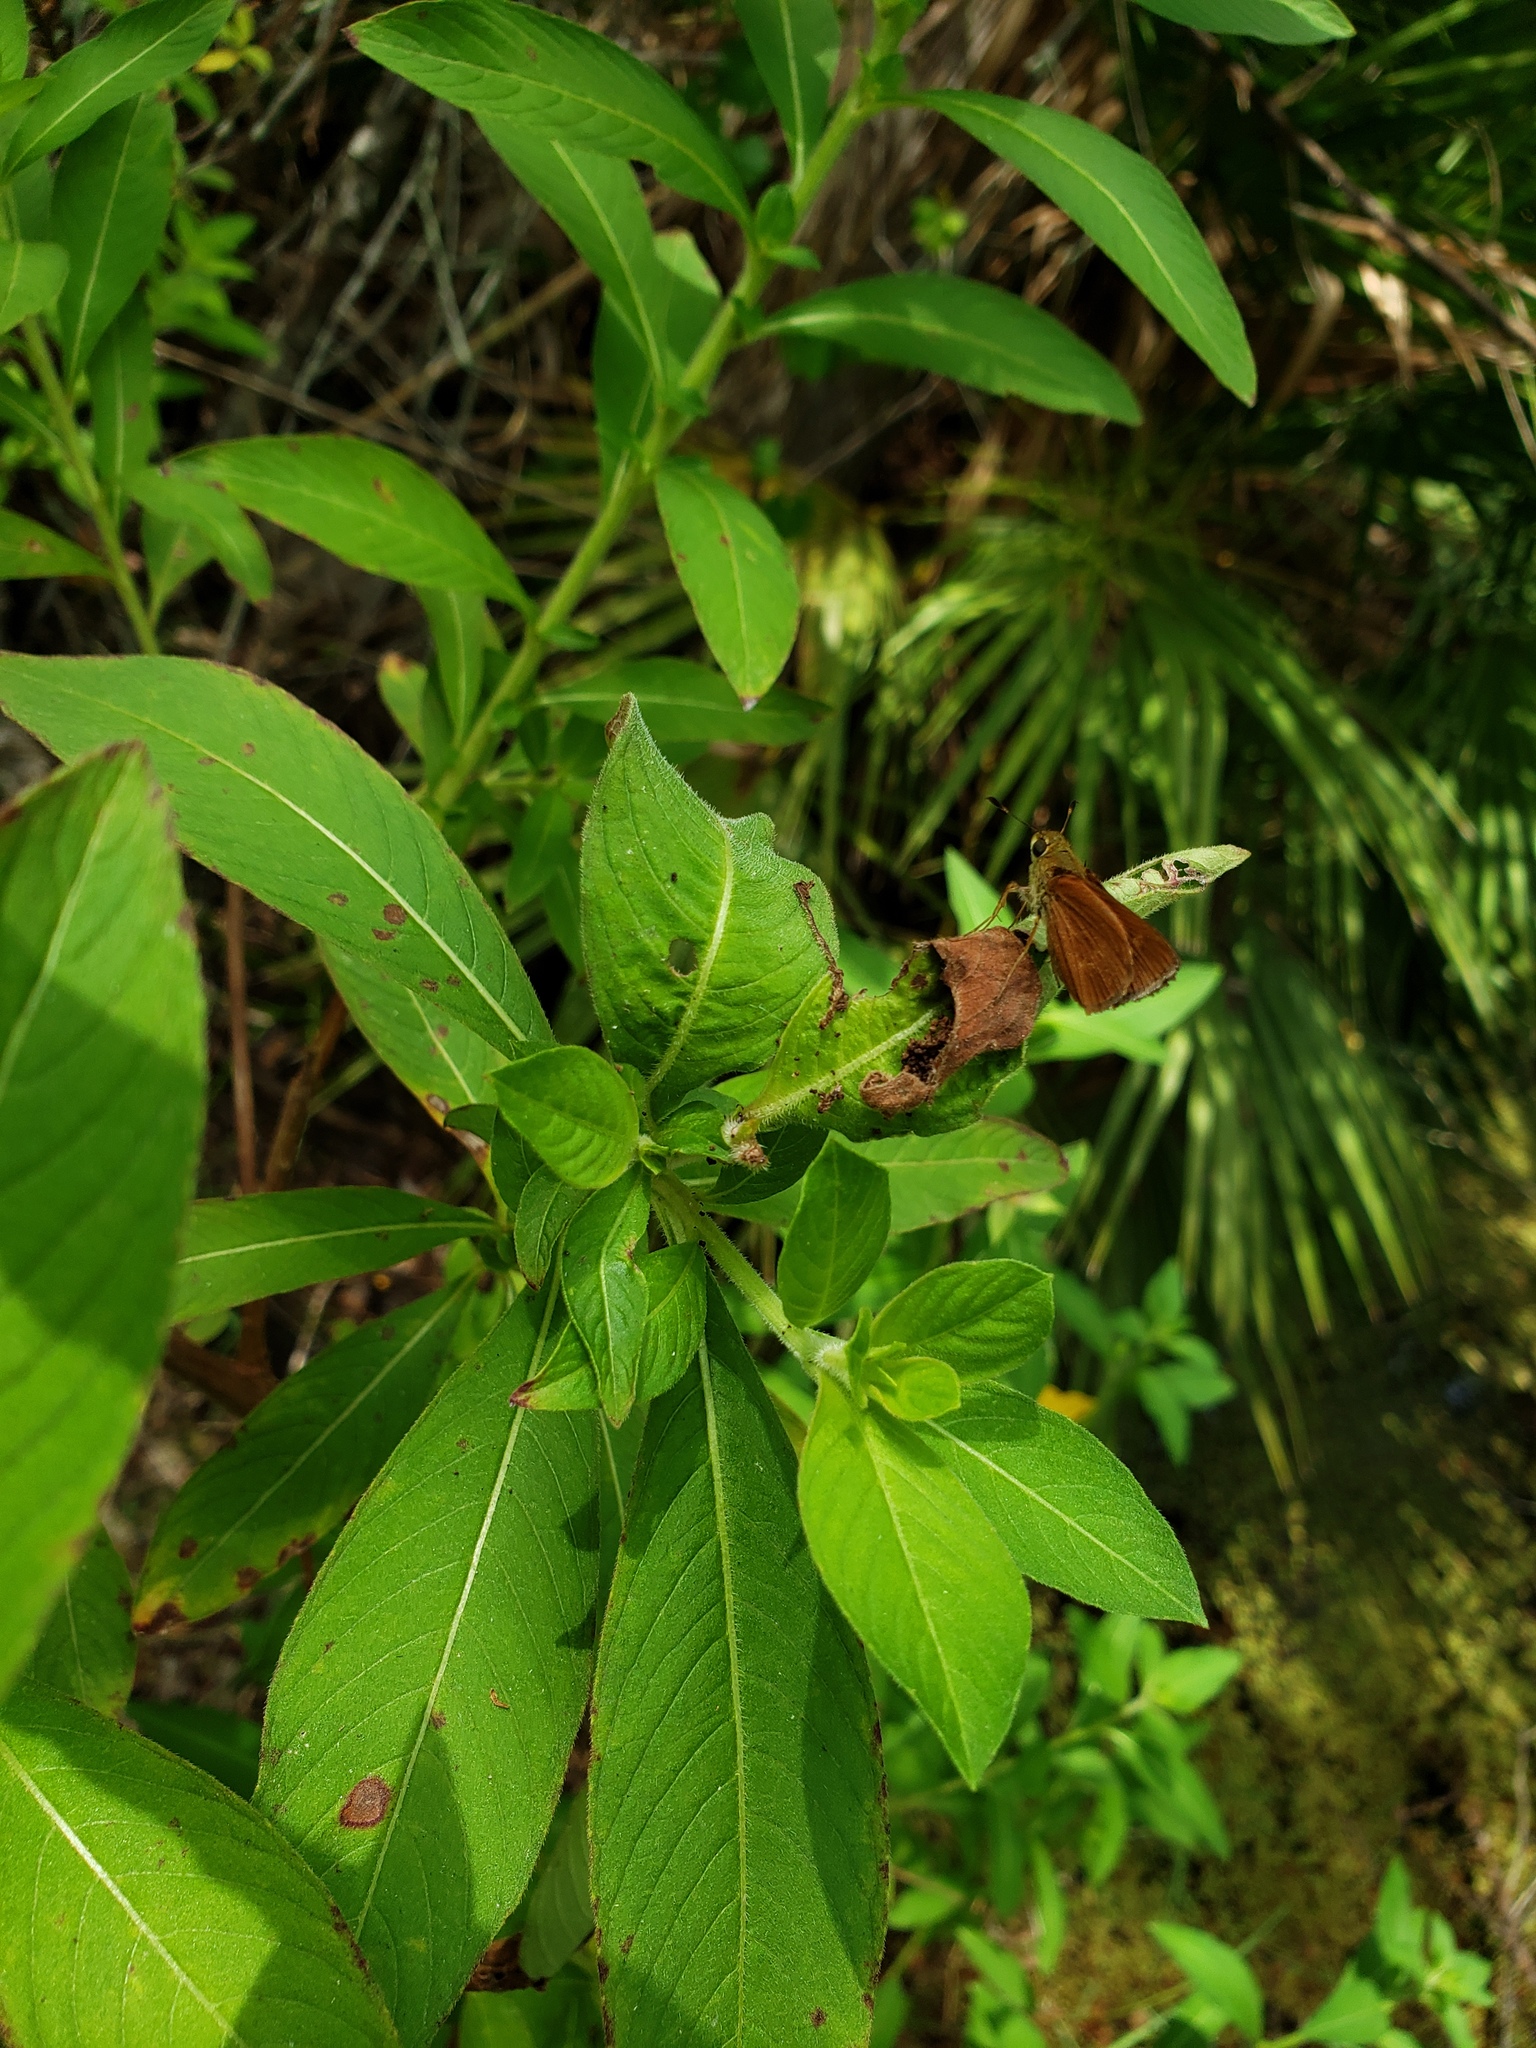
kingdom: Animalia
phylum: Arthropoda
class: Insecta
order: Lepidoptera
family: Hesperiidae
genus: Polites
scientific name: Polites otho
